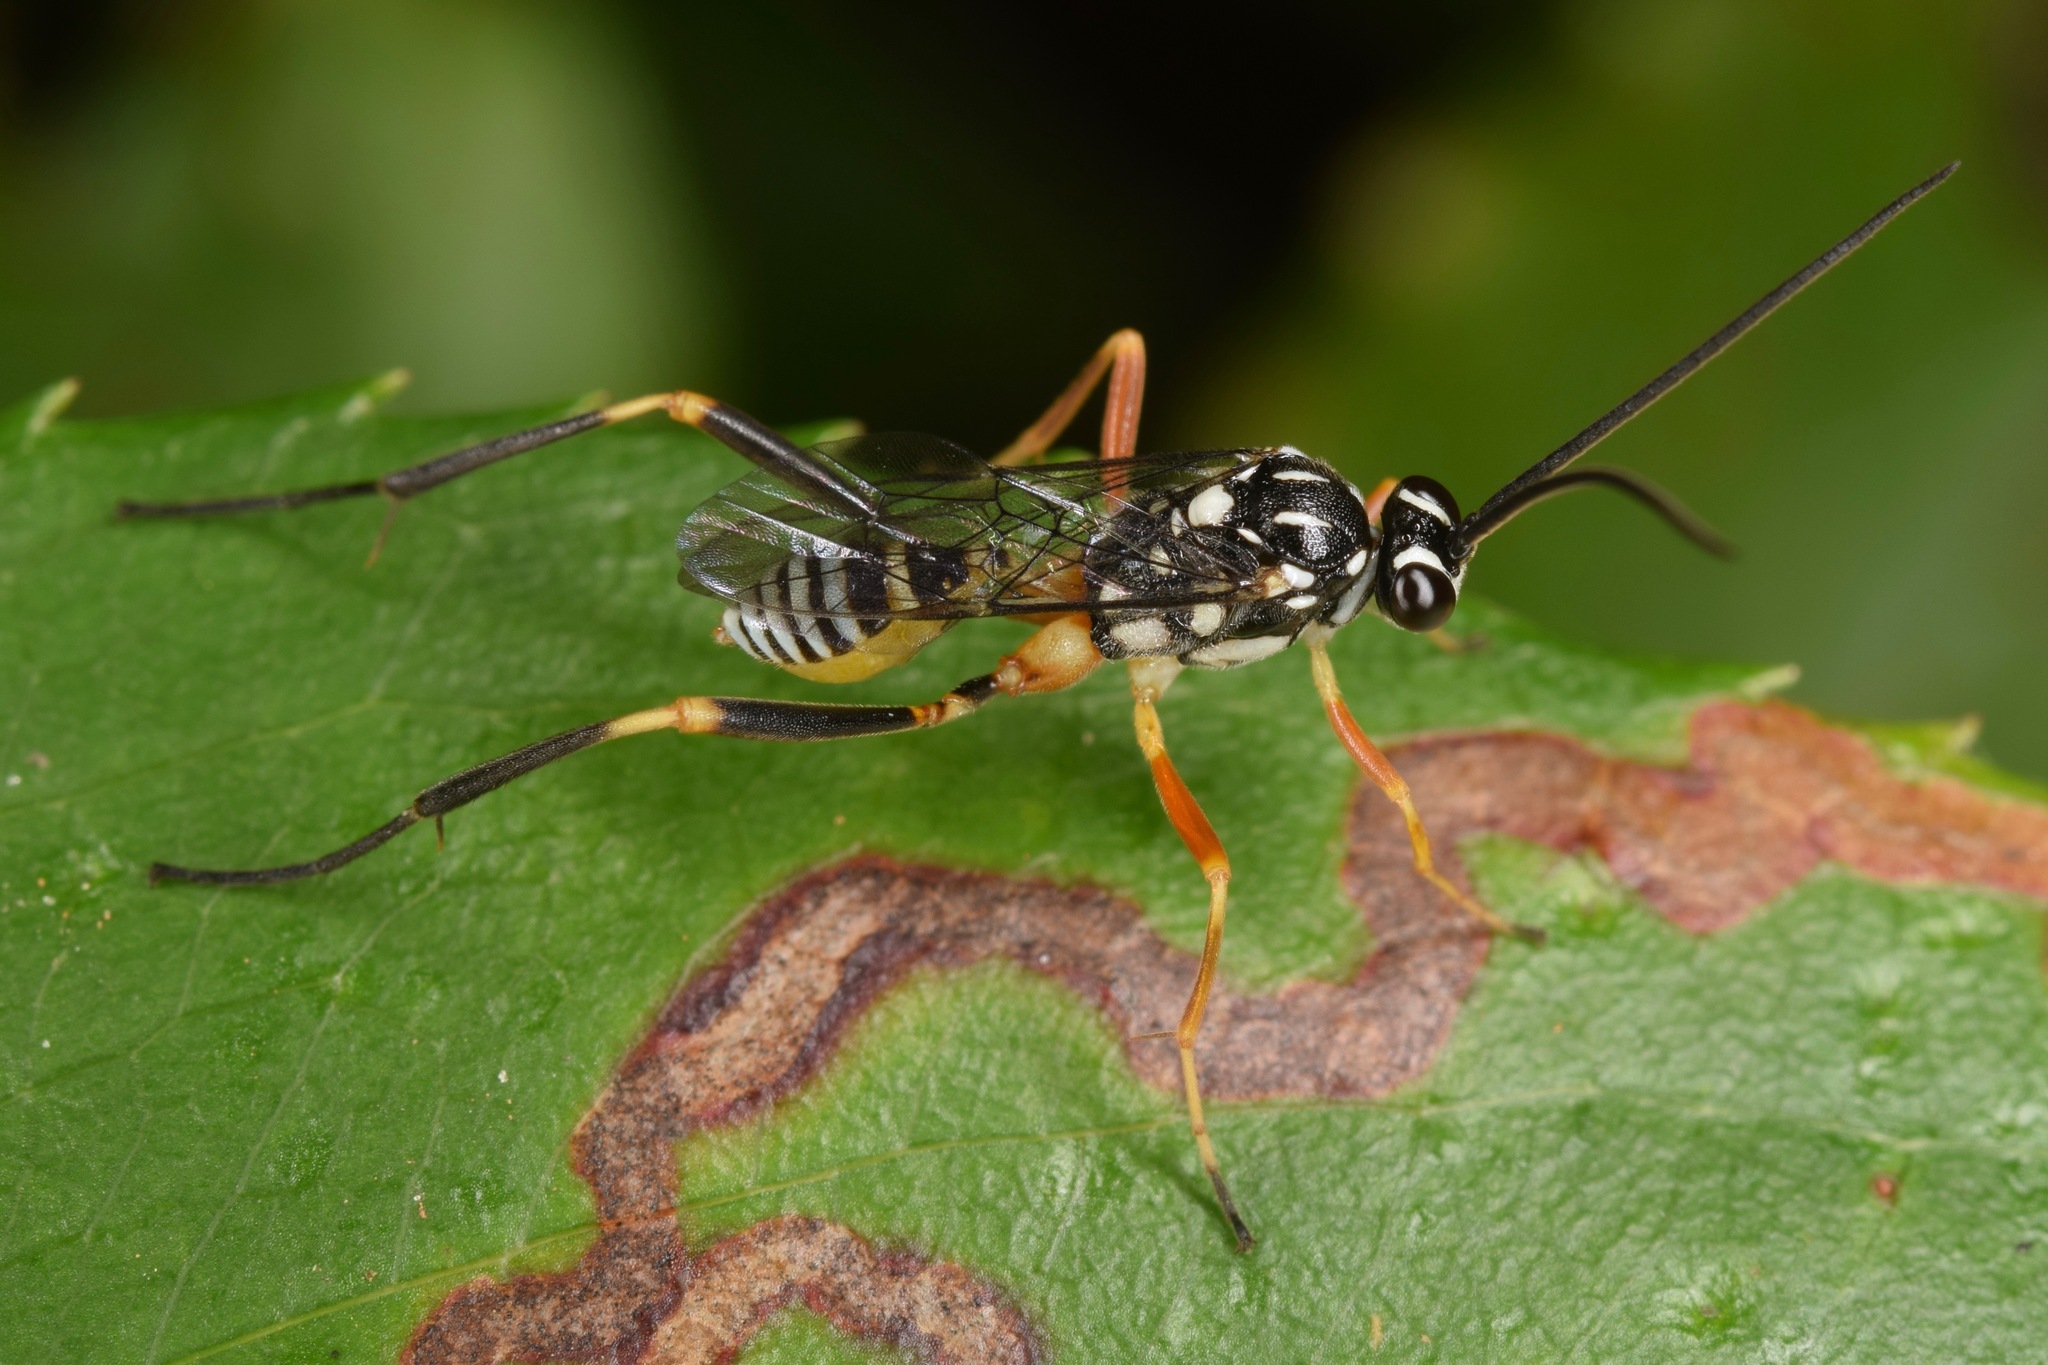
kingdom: Animalia
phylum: Arthropoda
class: Insecta
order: Hymenoptera
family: Ichneumonidae
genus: Baryceros
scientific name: Baryceros texanus
